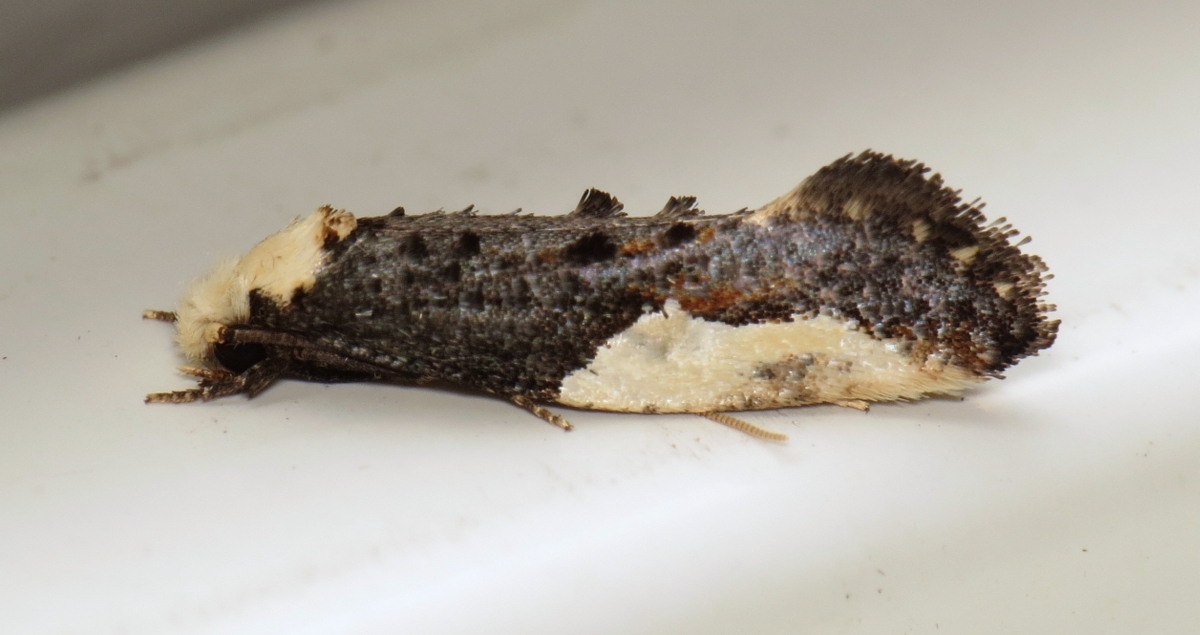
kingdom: Animalia
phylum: Arthropoda
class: Insecta
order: Lepidoptera
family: Tineidae
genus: Monopis
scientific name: Monopis longella
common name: Pavlovski's monopis moth
